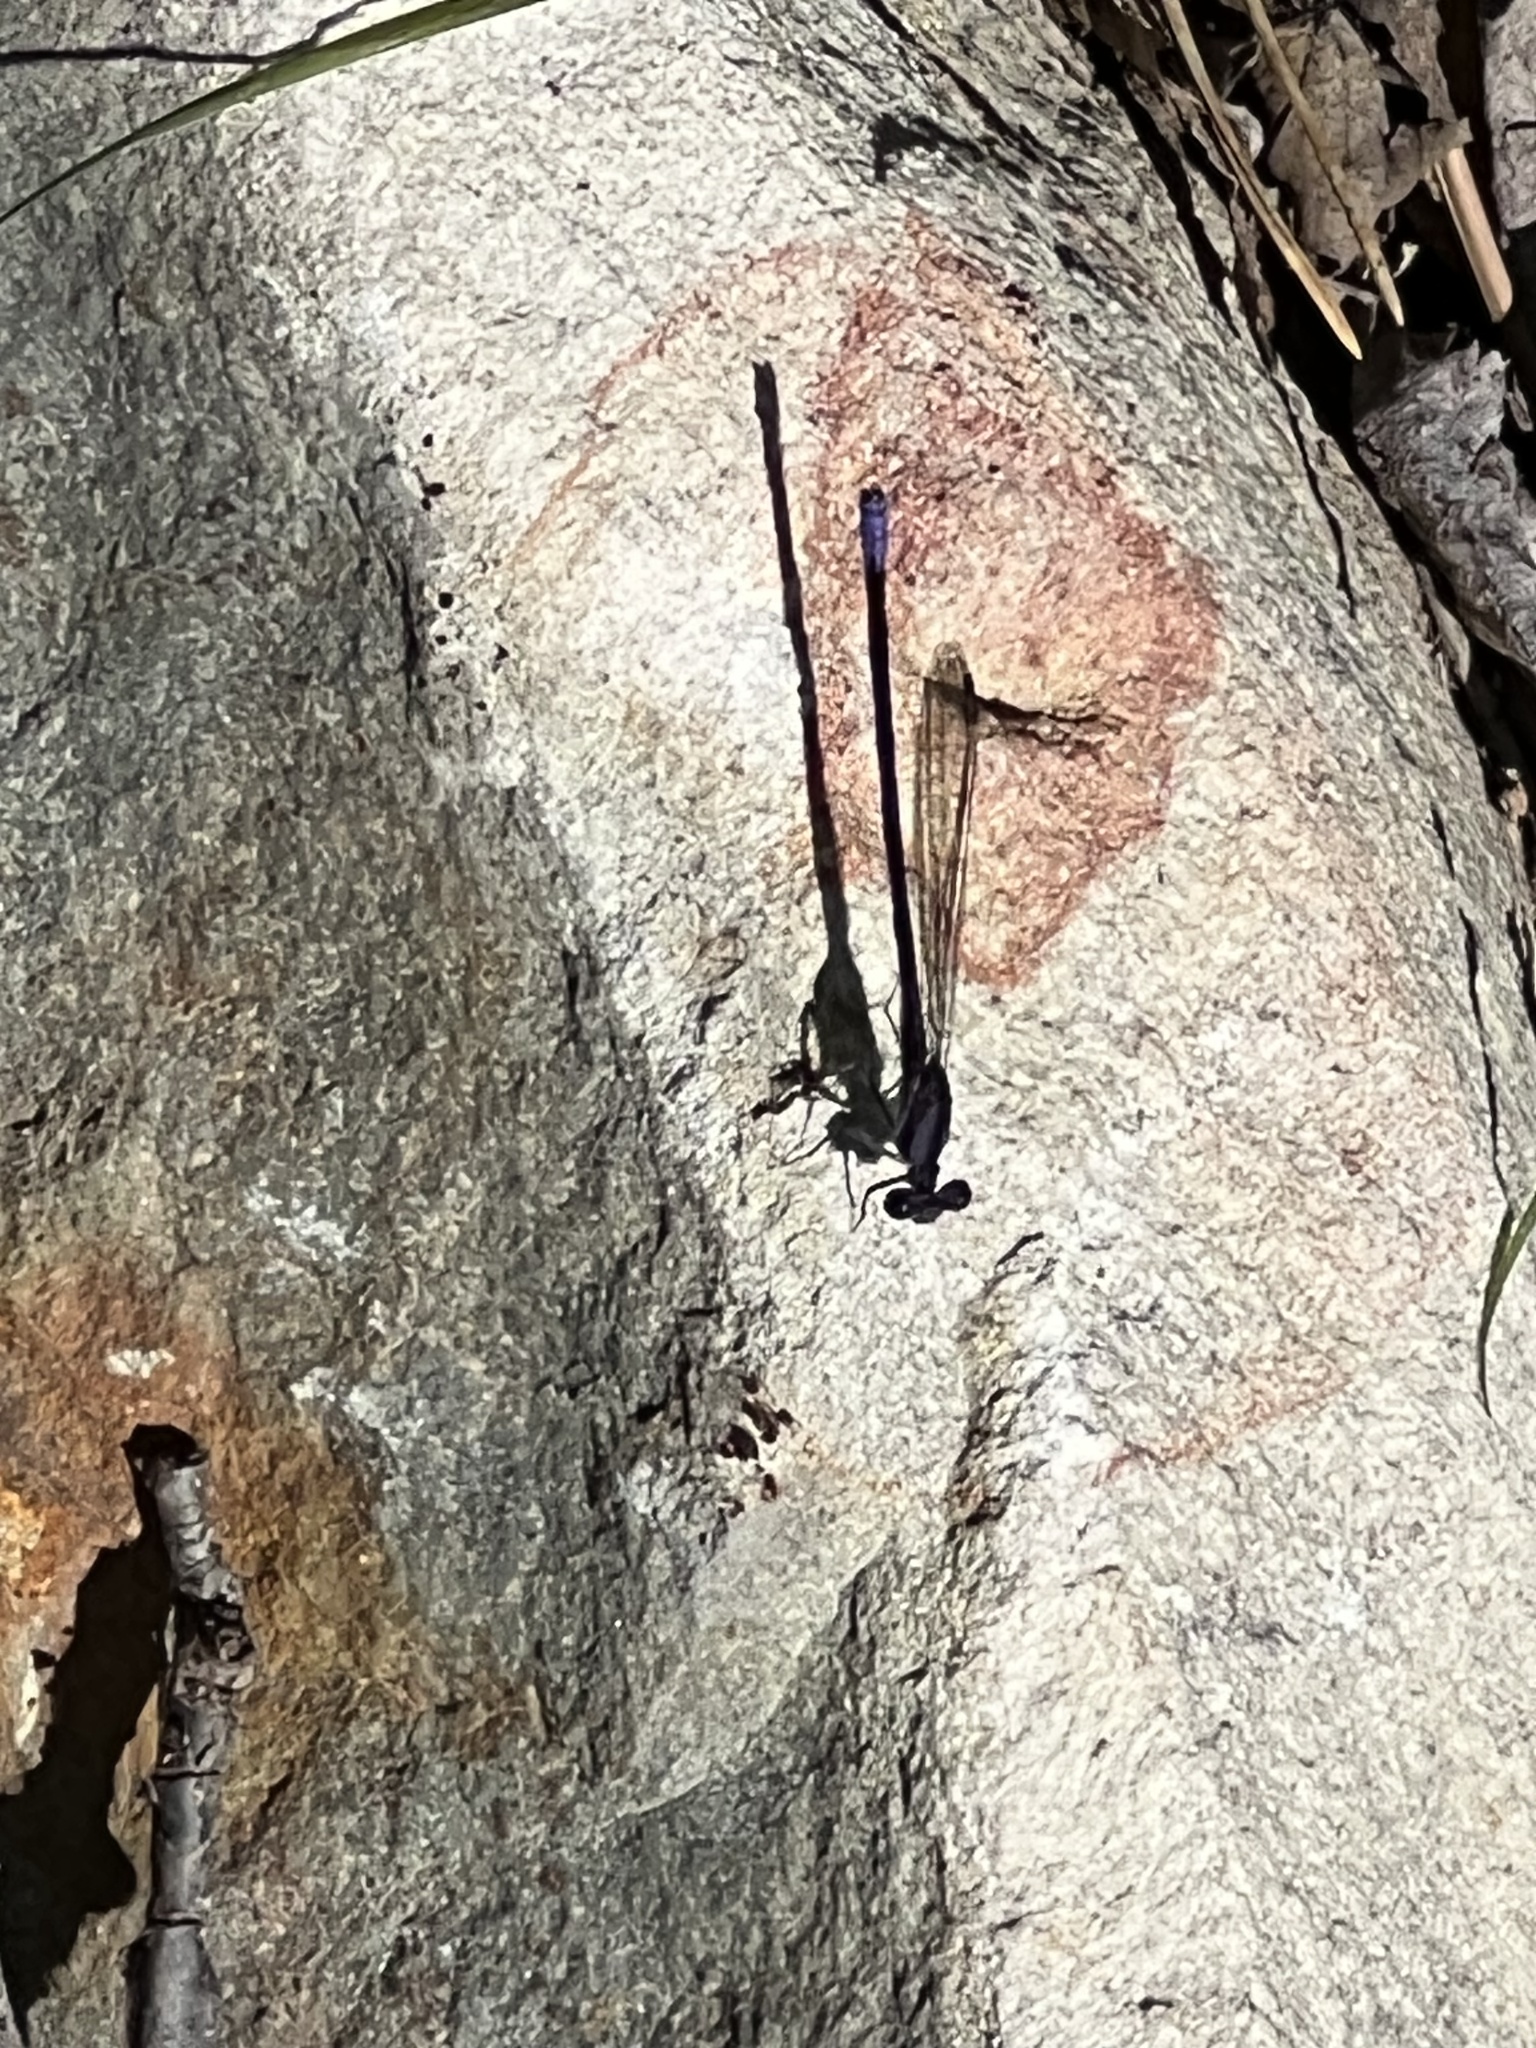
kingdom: Animalia
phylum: Arthropoda
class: Insecta
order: Odonata
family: Coenagrionidae
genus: Argia
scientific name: Argia fumipennis
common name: Variable dancer
